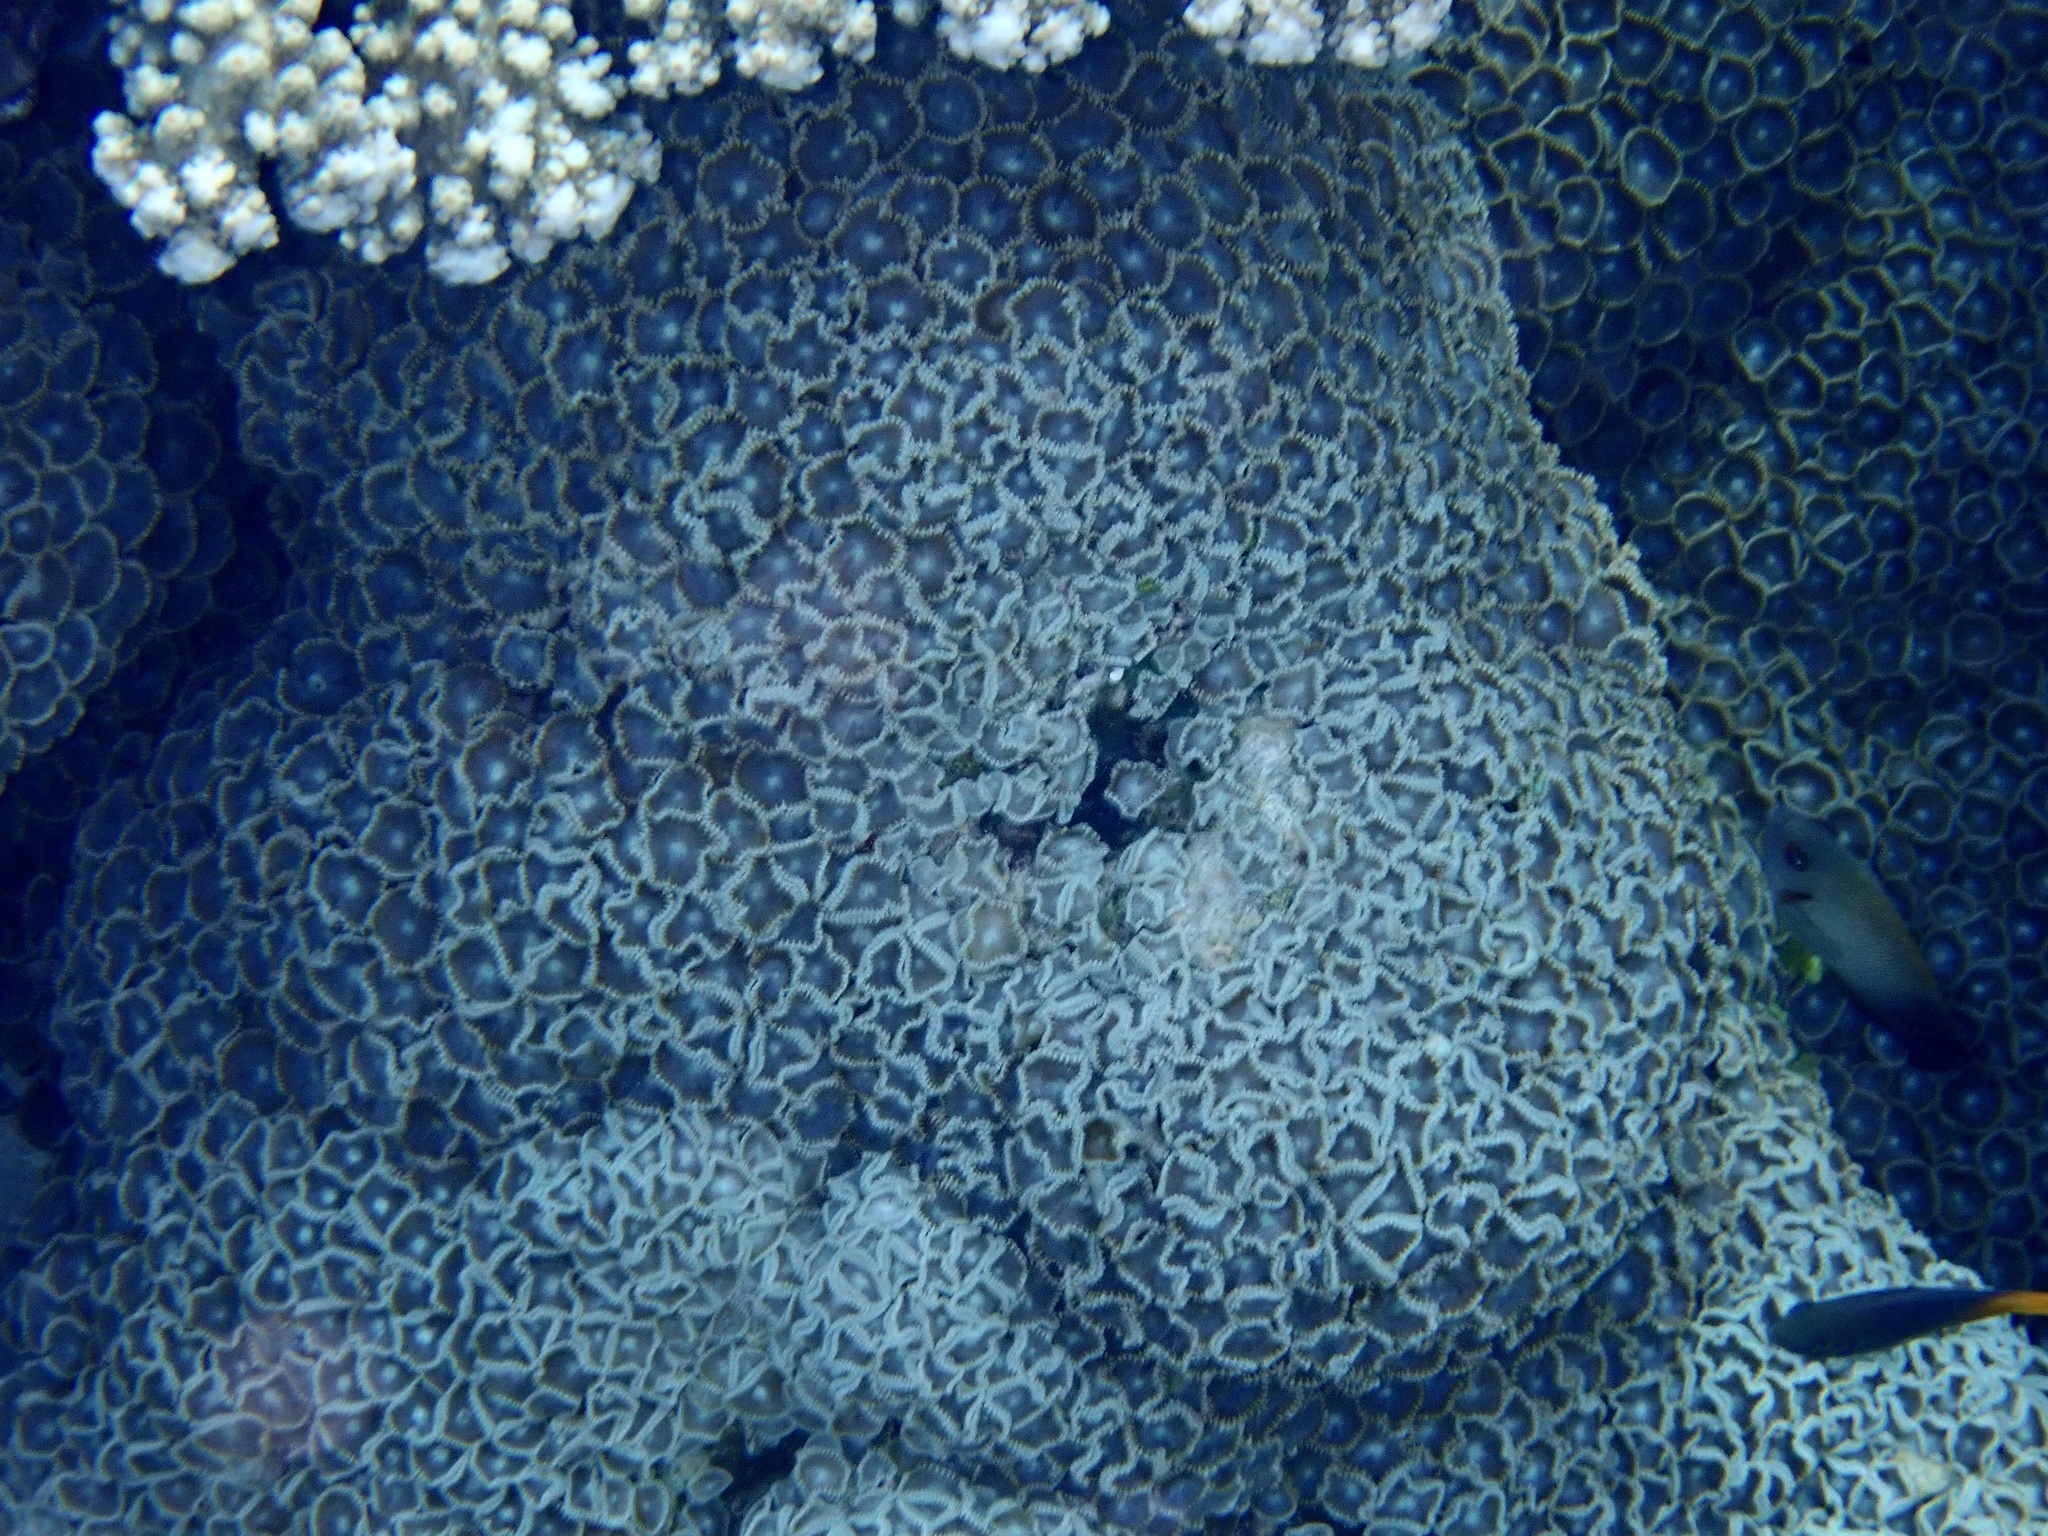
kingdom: Animalia
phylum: Cnidaria
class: Anthozoa
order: Zoantharia
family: Sphenopidae
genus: Palythoa
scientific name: Palythoa mutuki
